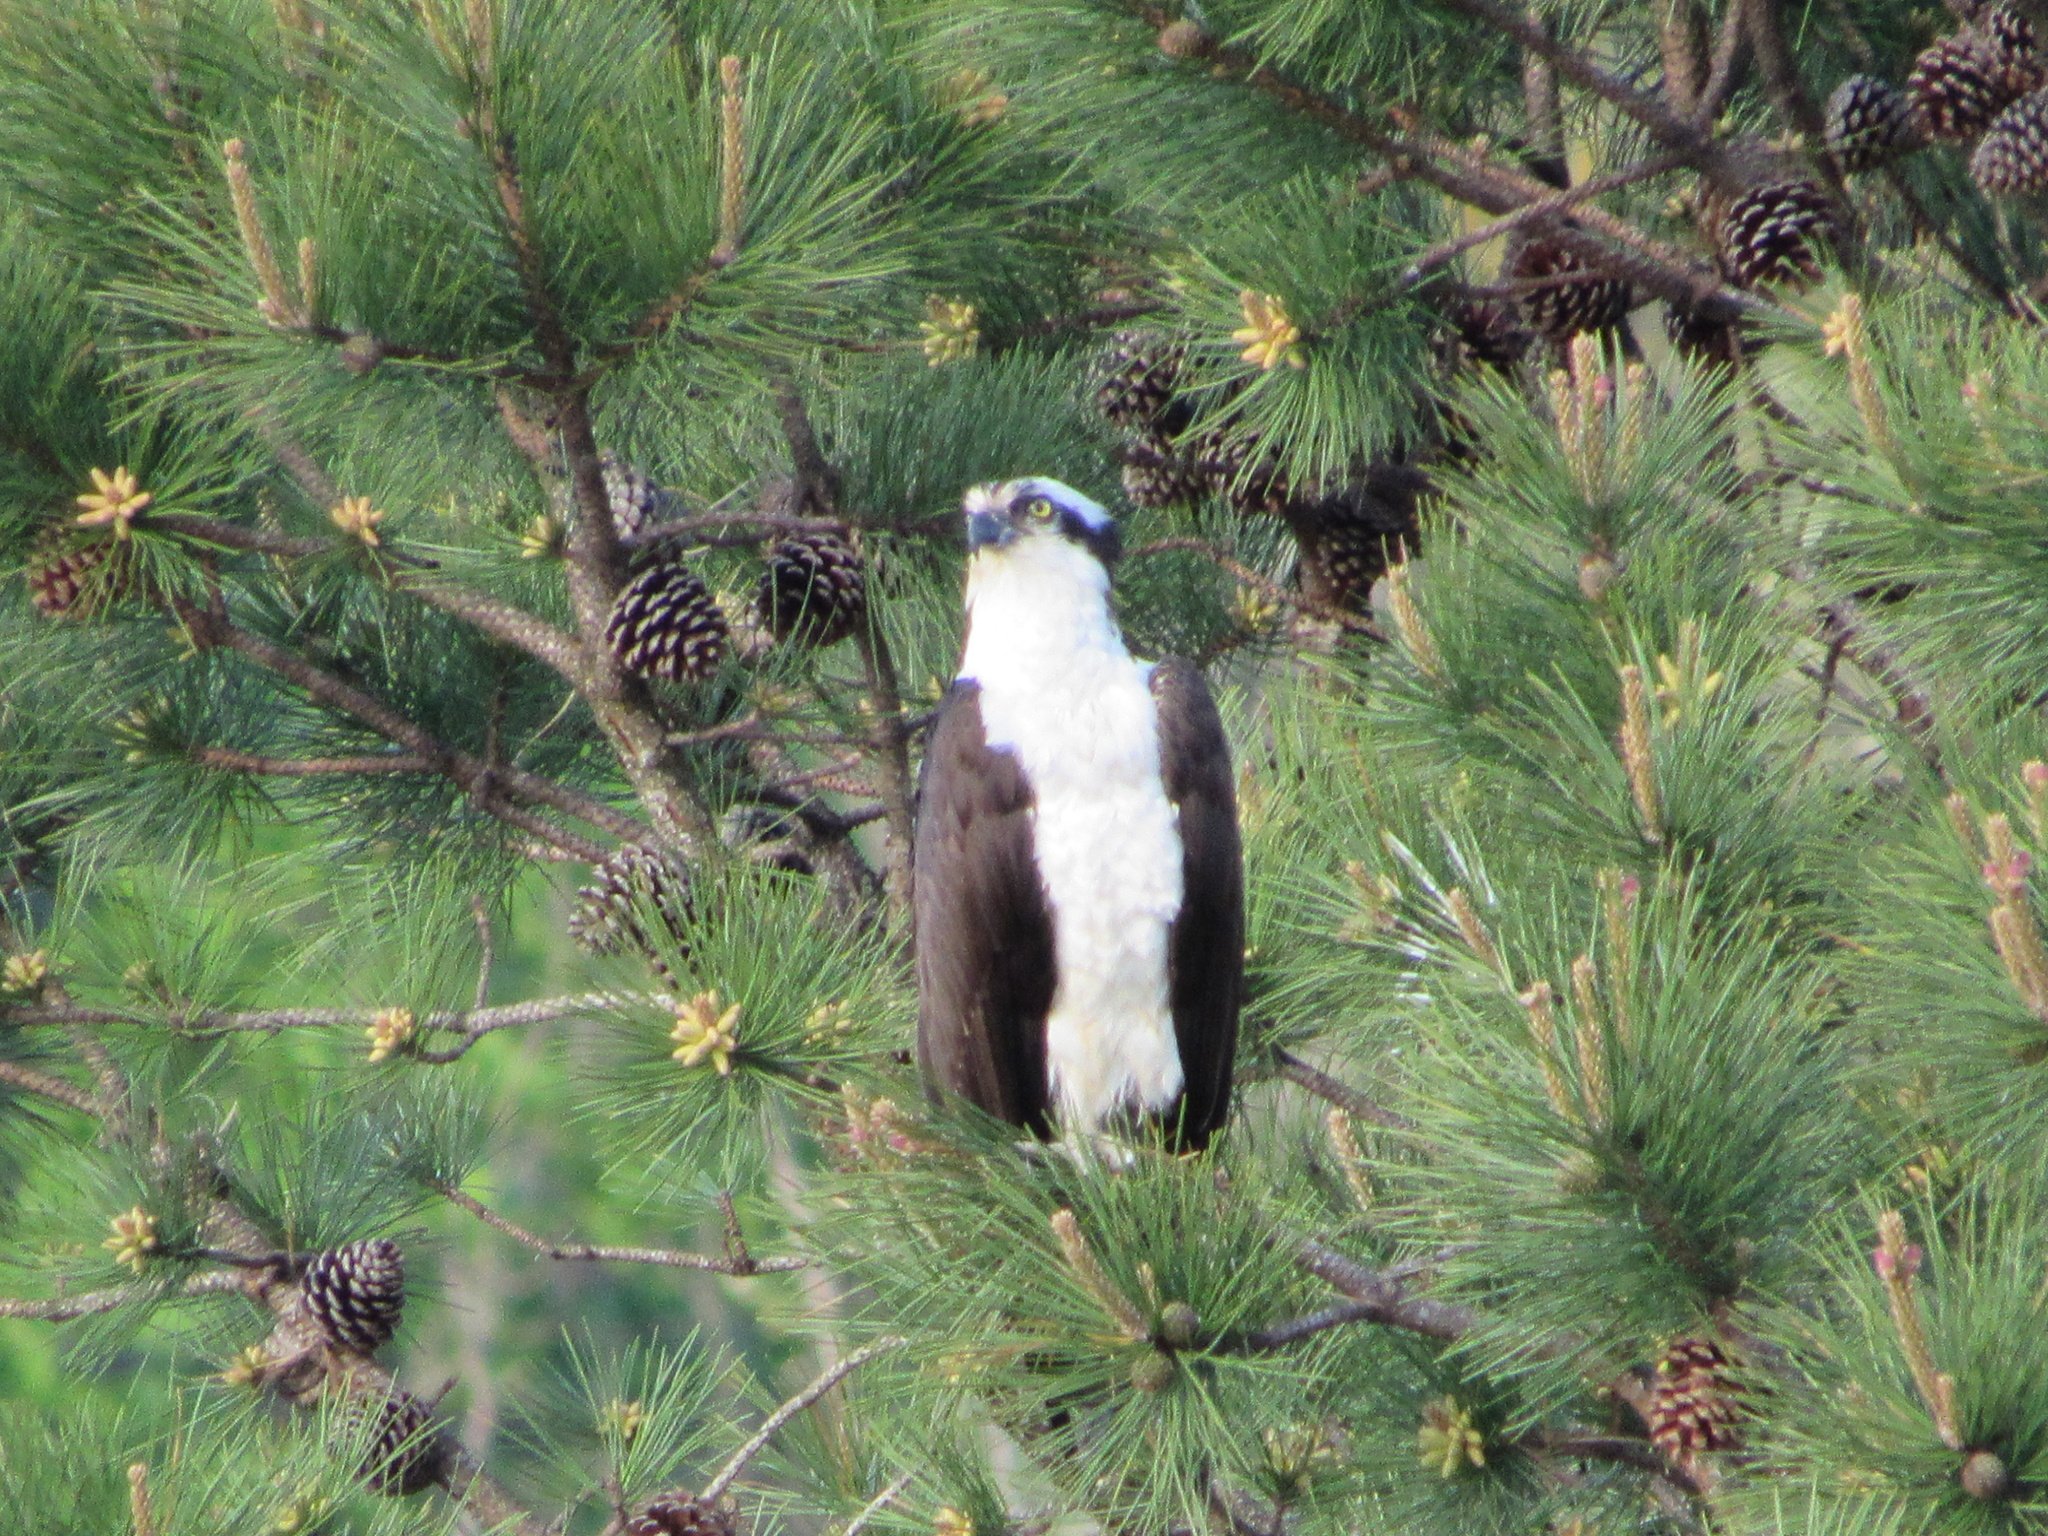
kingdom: Animalia
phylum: Chordata
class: Aves
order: Accipitriformes
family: Pandionidae
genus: Pandion
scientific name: Pandion haliaetus
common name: Osprey
